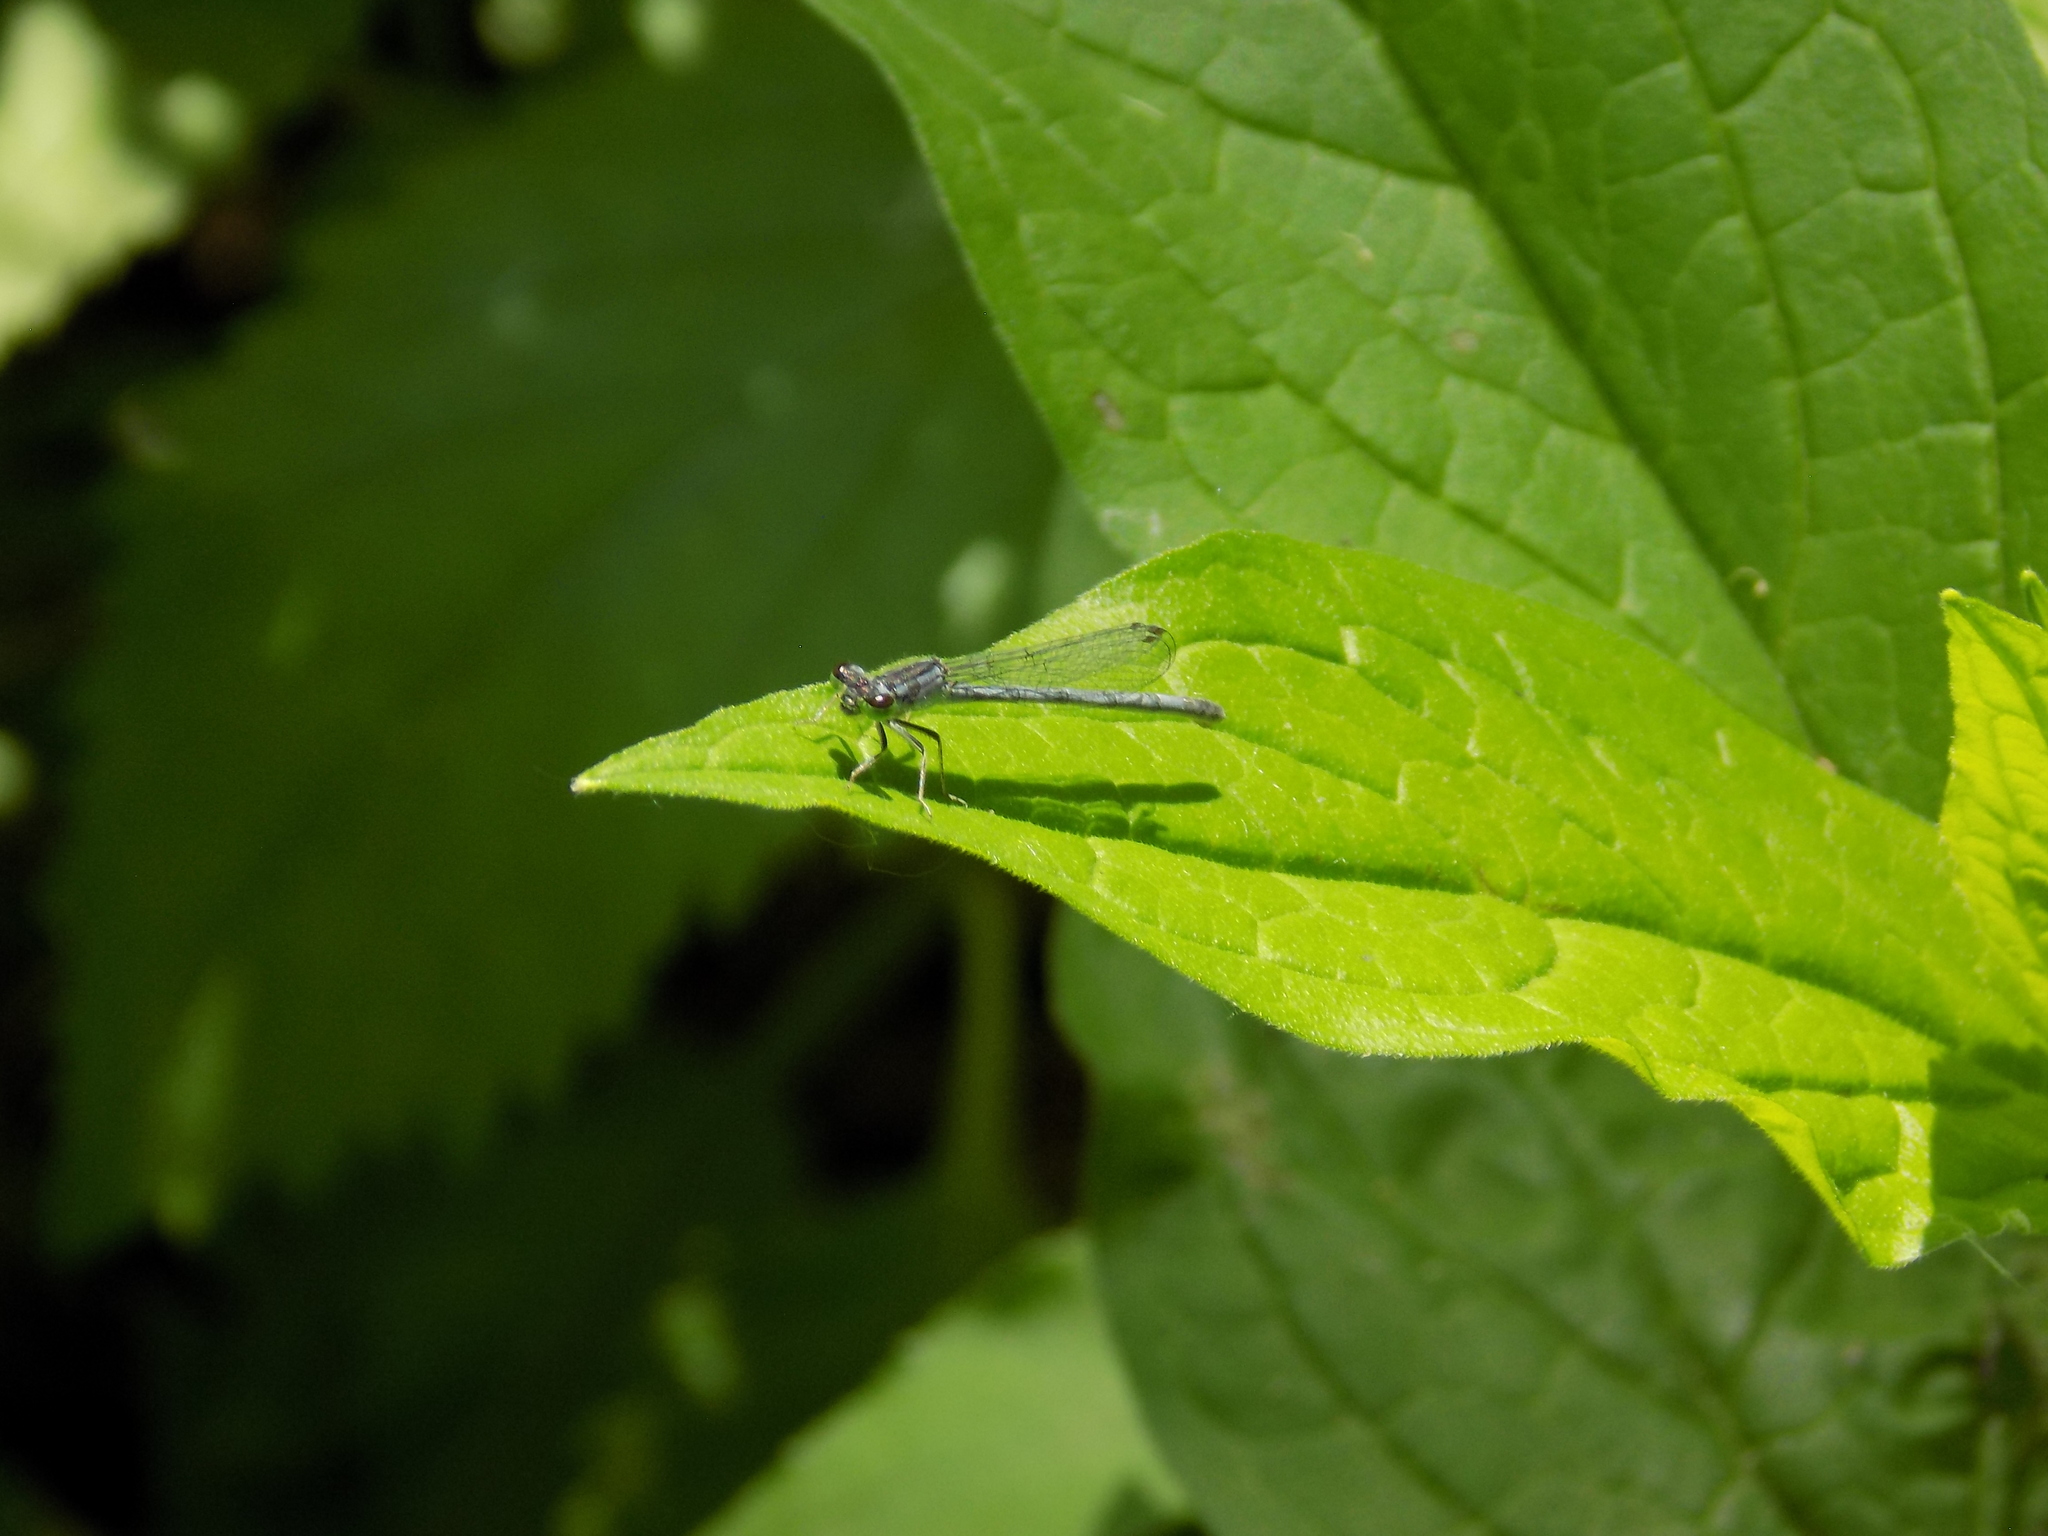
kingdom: Animalia
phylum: Arthropoda
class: Insecta
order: Odonata
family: Coenagrionidae
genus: Ischnura
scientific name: Ischnura verticalis
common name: Eastern forktail
